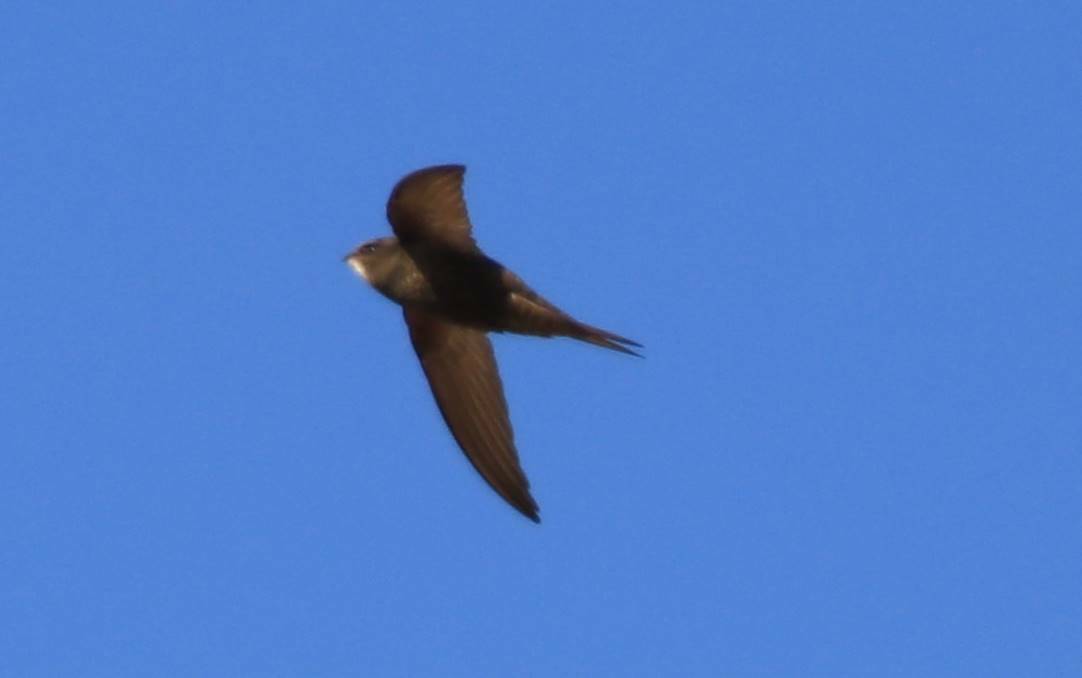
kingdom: Animalia
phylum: Chordata
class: Aves
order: Apodiformes
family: Apodidae
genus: Apus
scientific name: Apus apus
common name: Common swift
